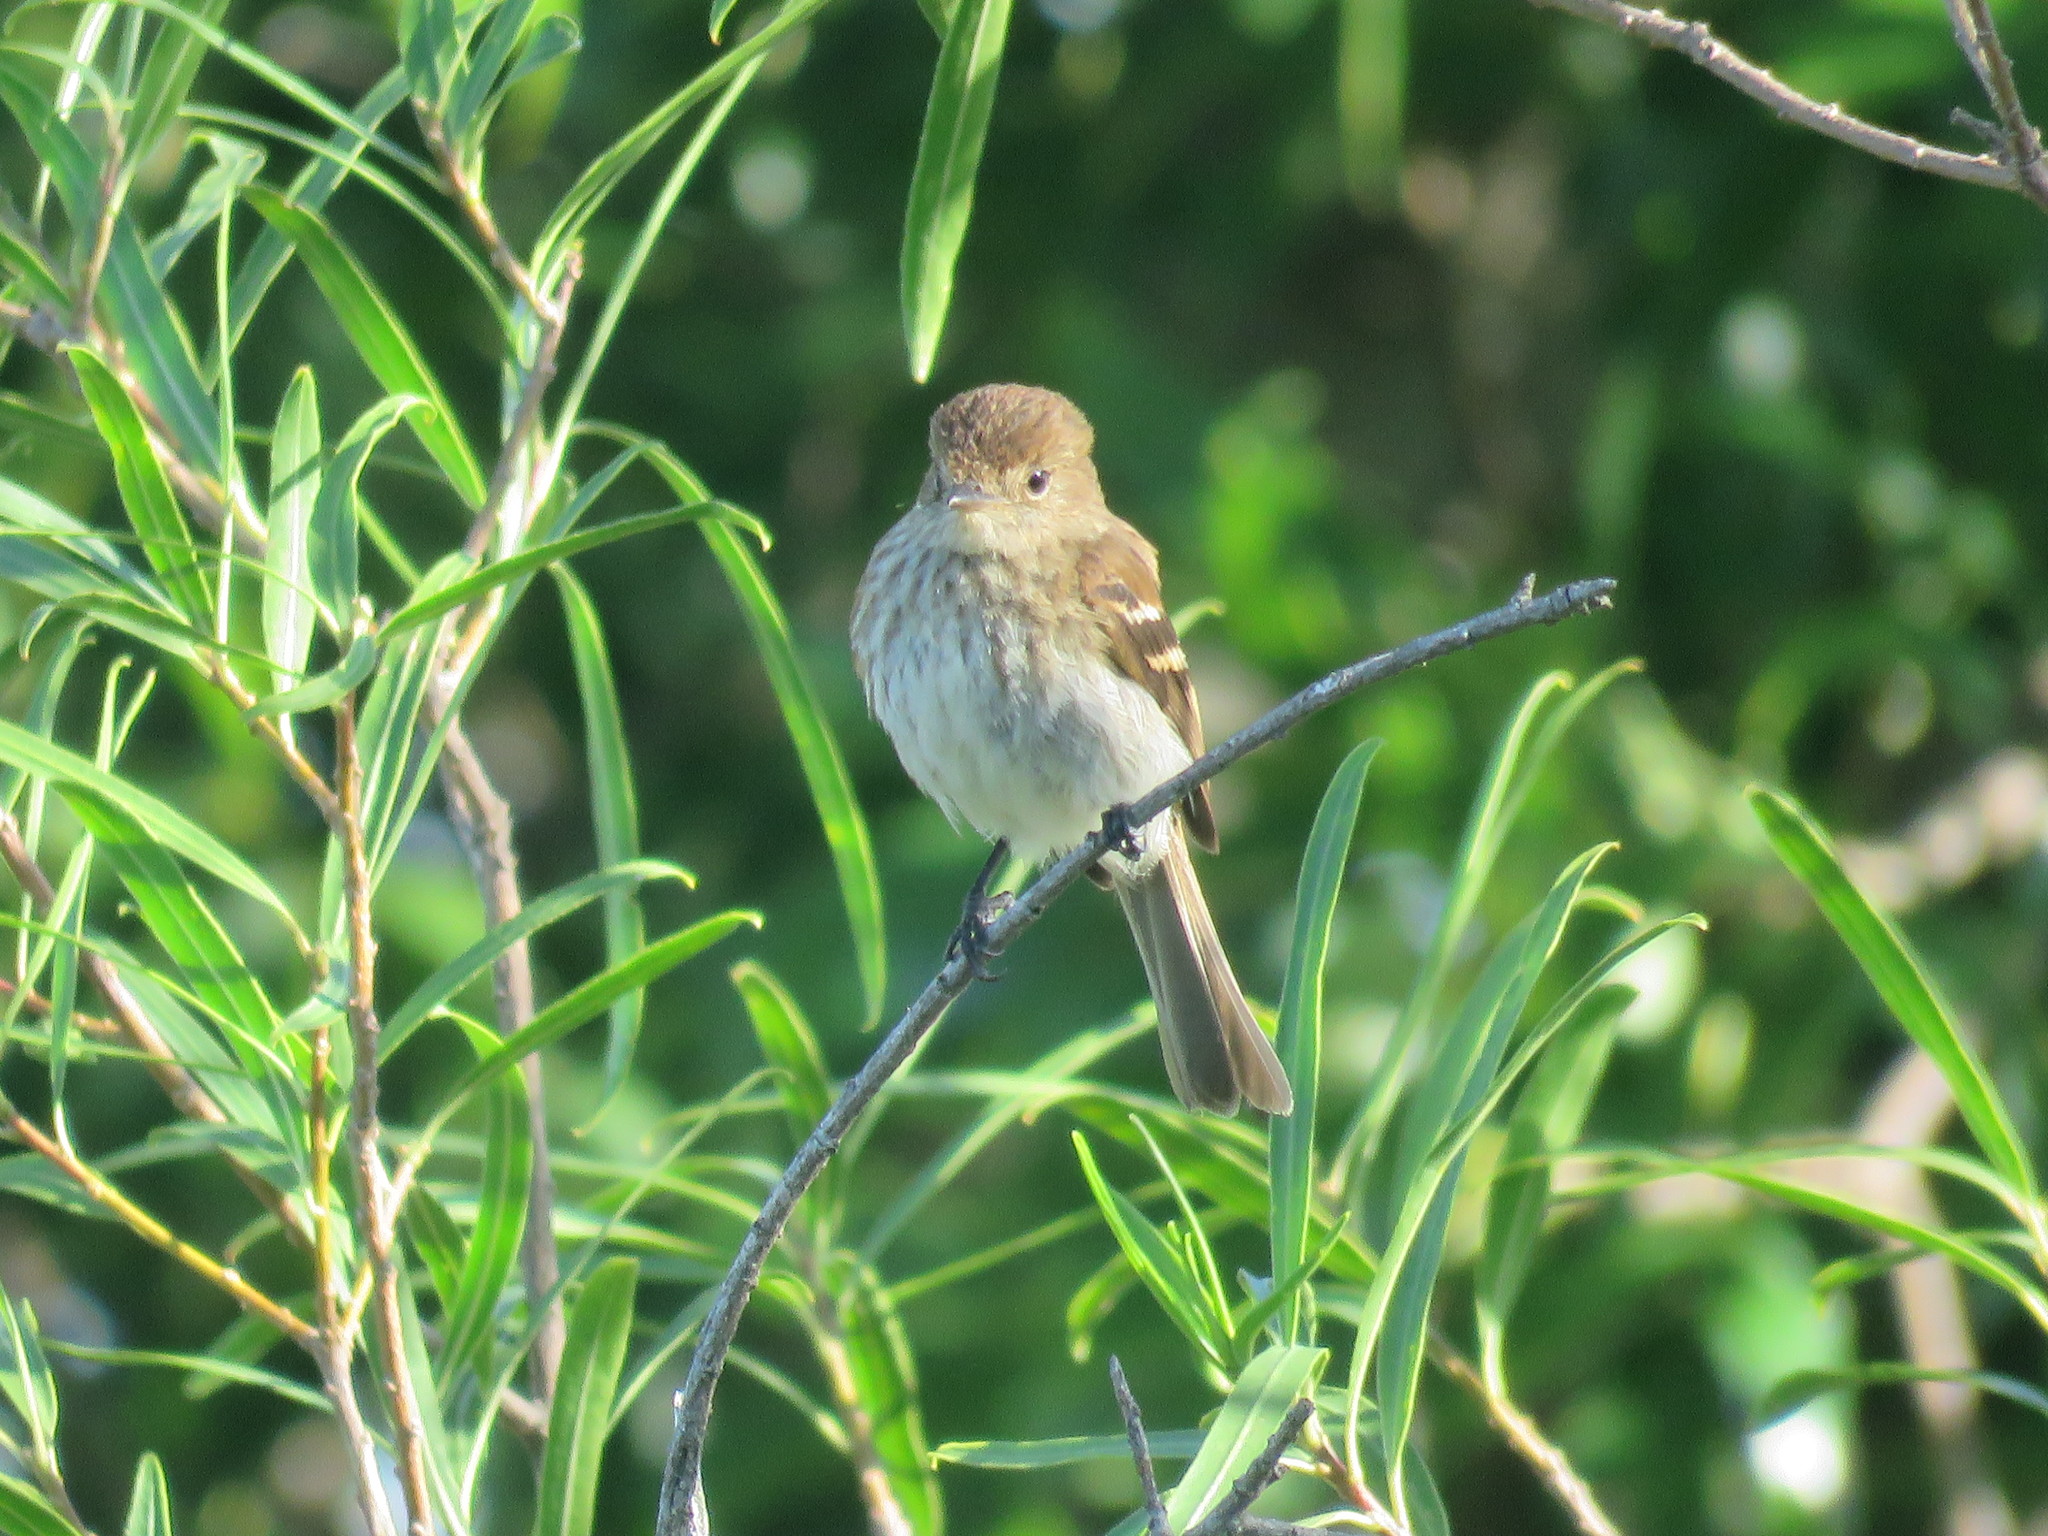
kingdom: Animalia
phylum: Chordata
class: Aves
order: Passeriformes
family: Tyrannidae
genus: Myiophobus
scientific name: Myiophobus fasciatus
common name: Bran-colored flycatcher
